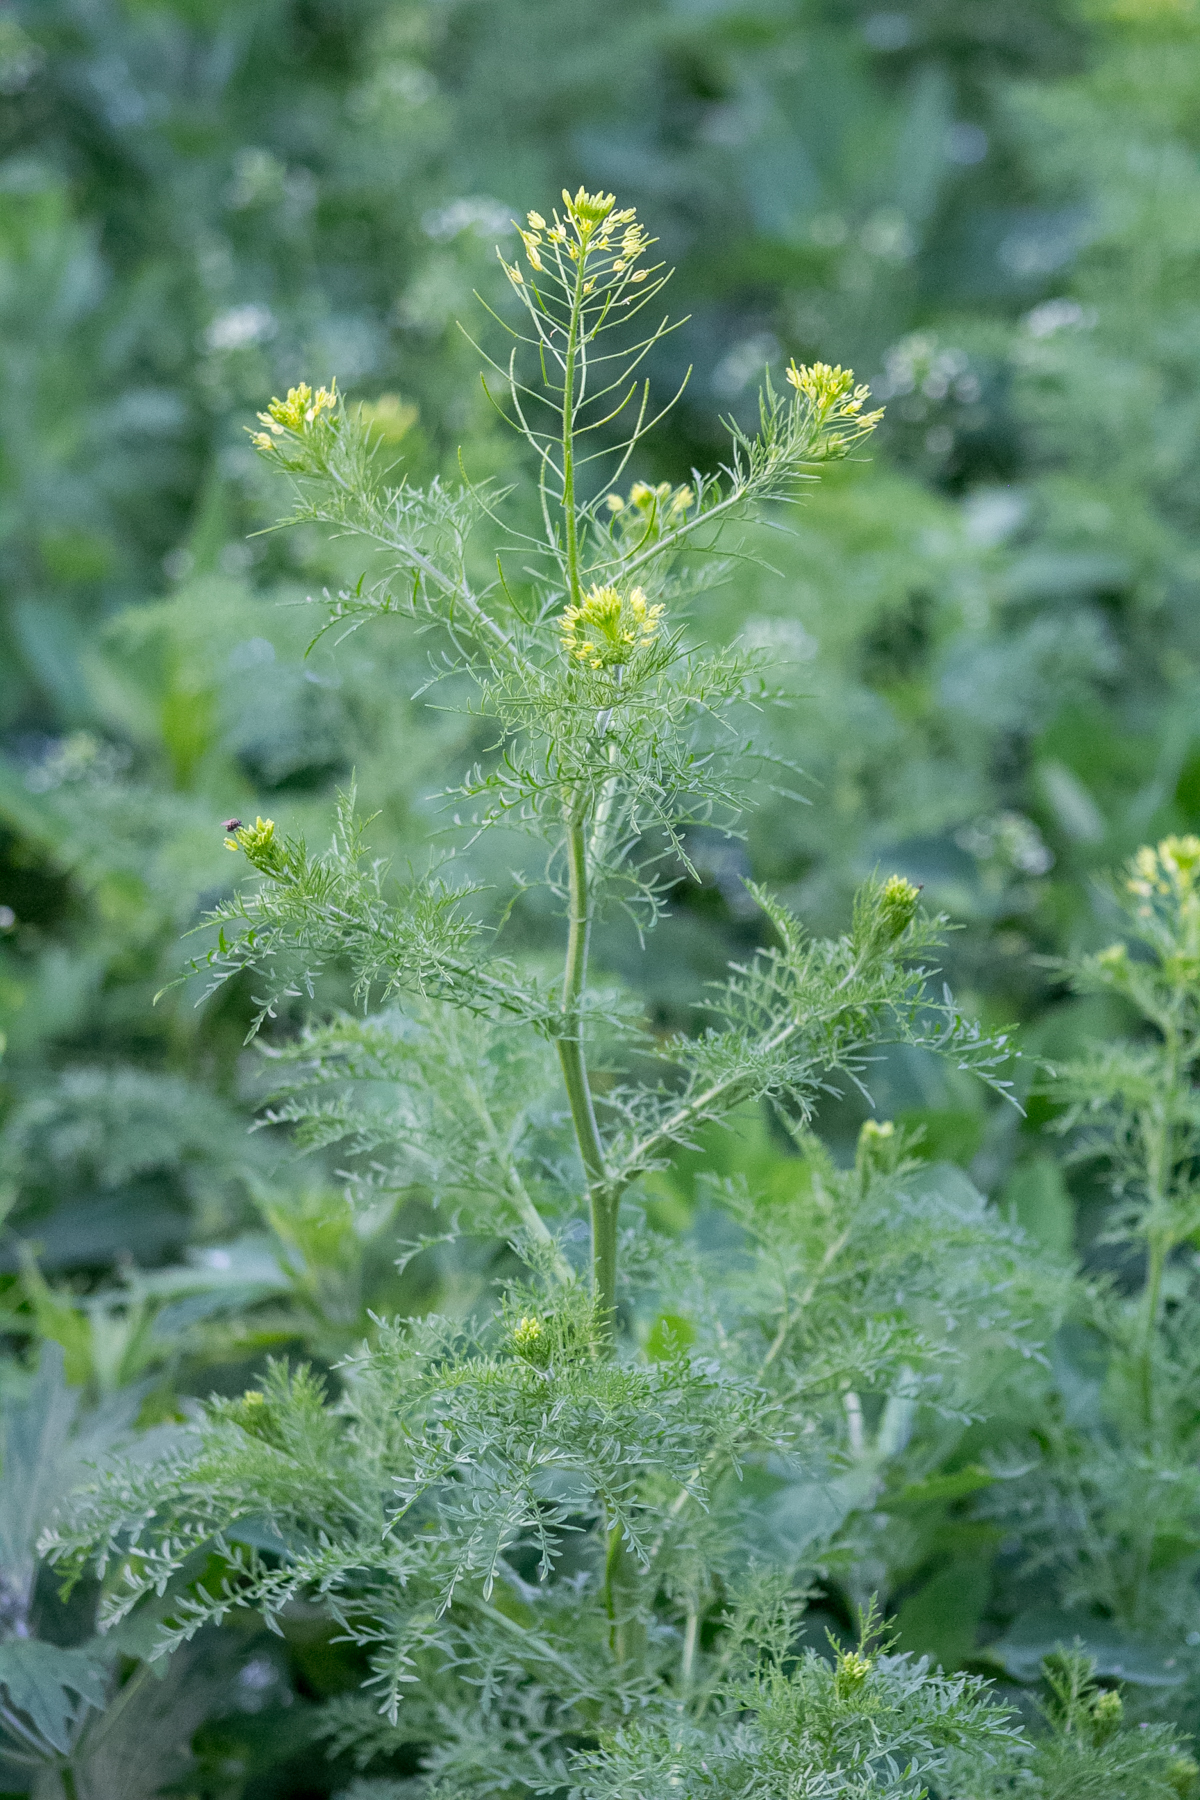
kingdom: Plantae
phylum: Tracheophyta
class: Magnoliopsida
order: Brassicales
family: Brassicaceae
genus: Descurainia
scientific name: Descurainia sophia
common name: Flixweed
